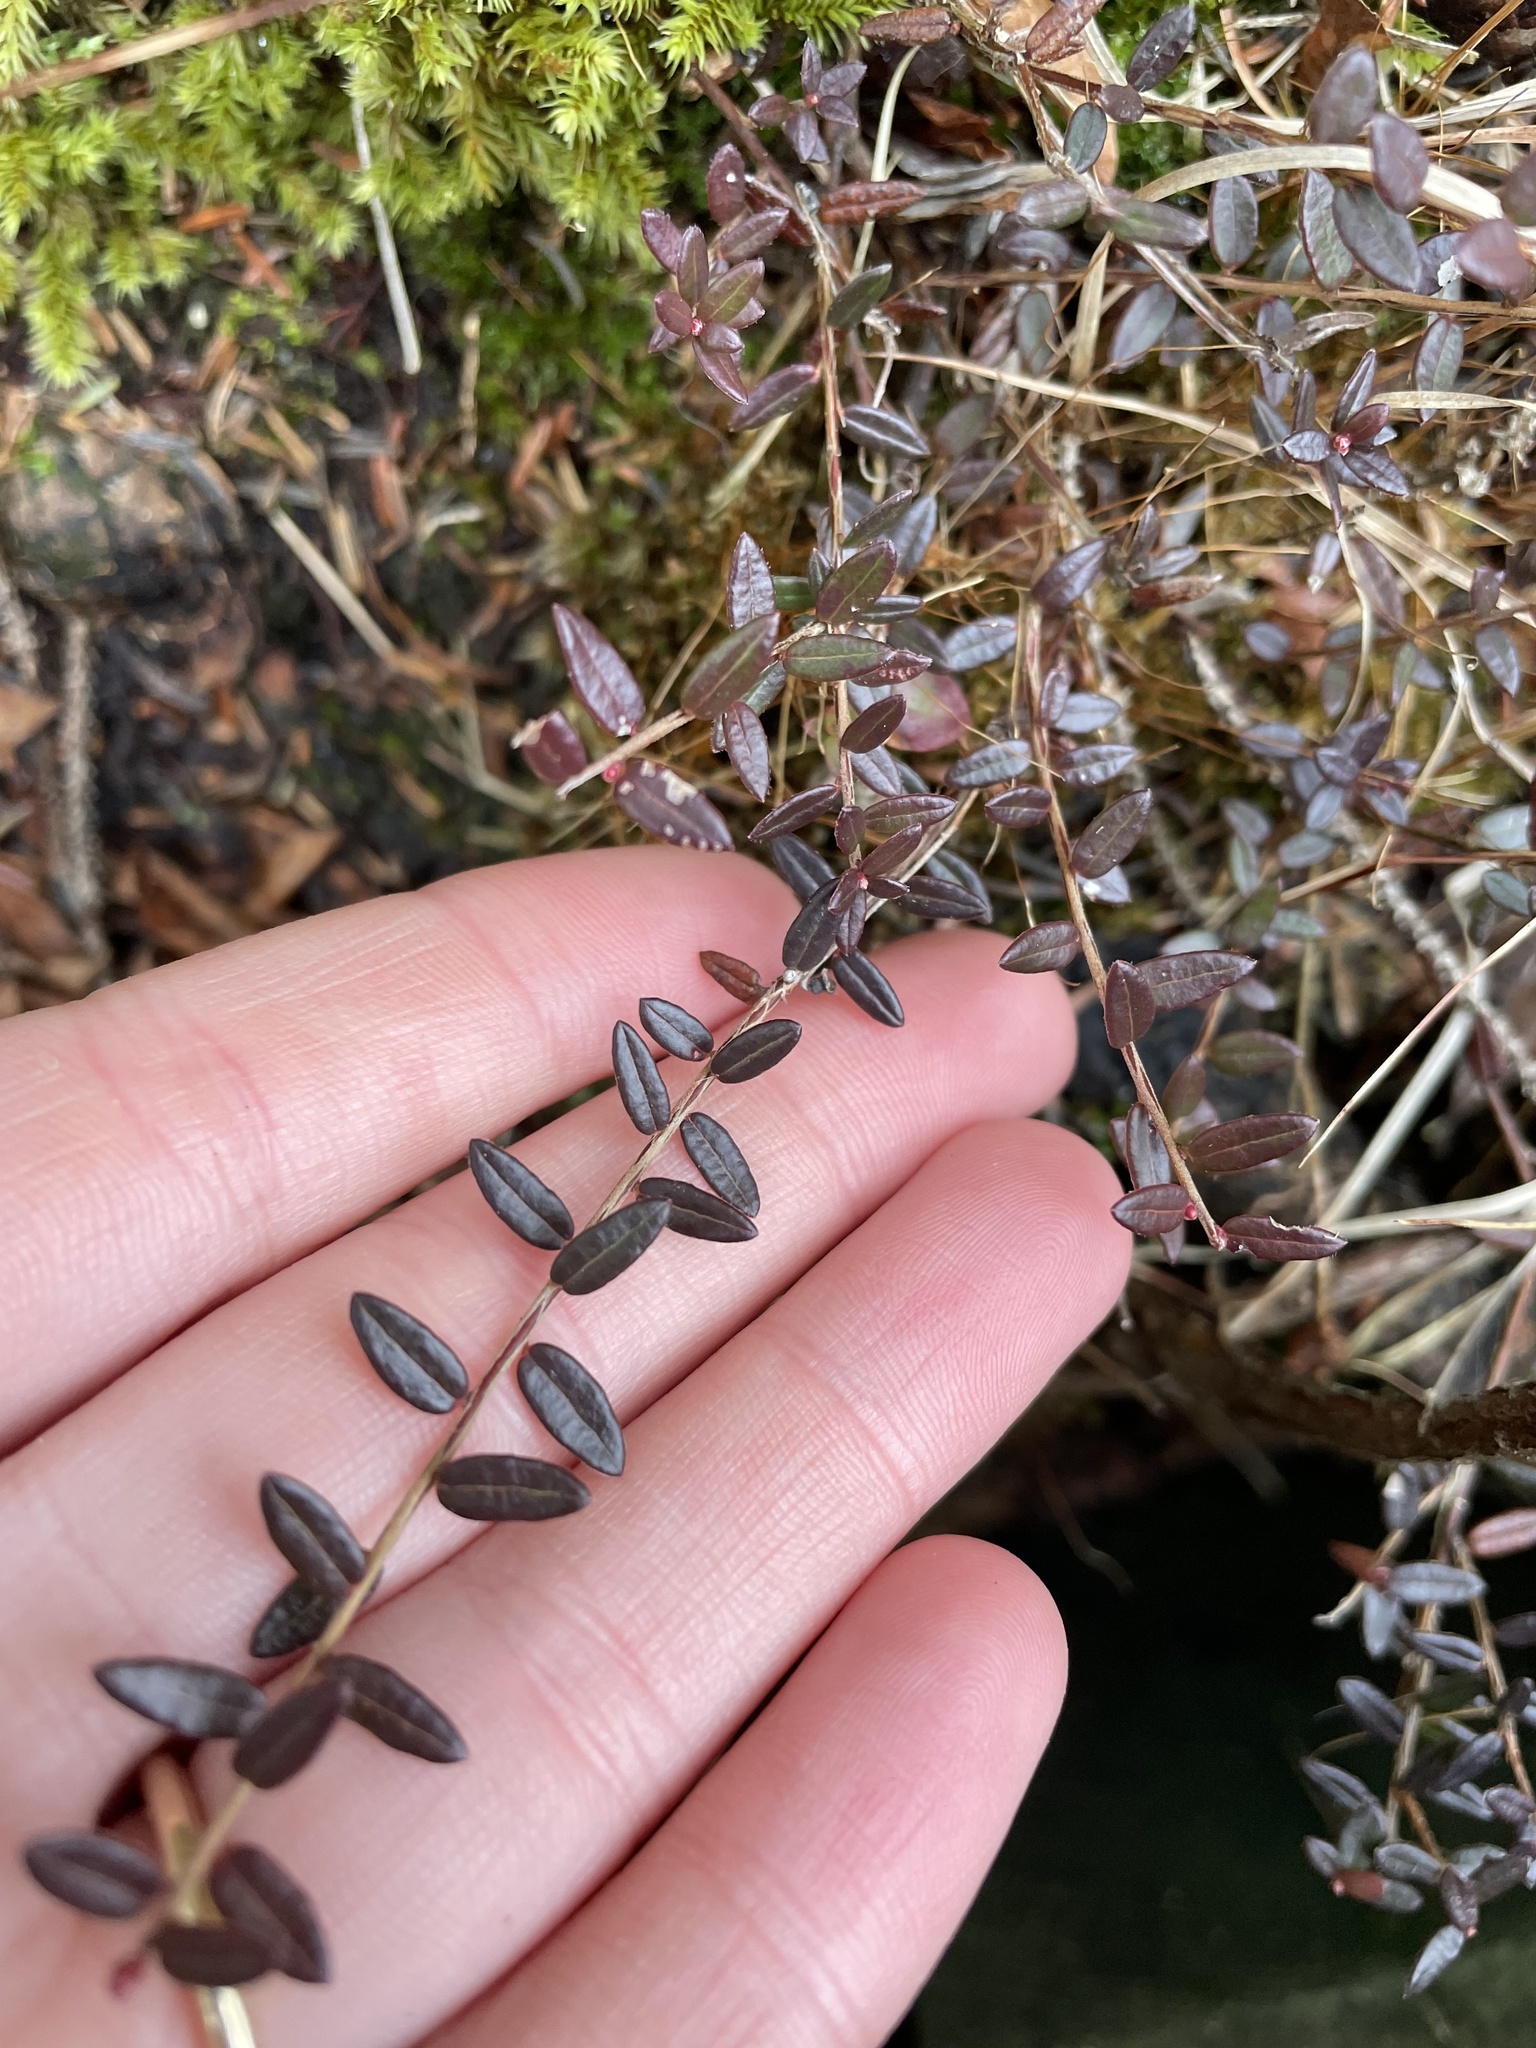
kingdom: Plantae
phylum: Tracheophyta
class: Magnoliopsida
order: Ericales
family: Ericaceae
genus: Vaccinium
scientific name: Vaccinium oxycoccos
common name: Cranberry
